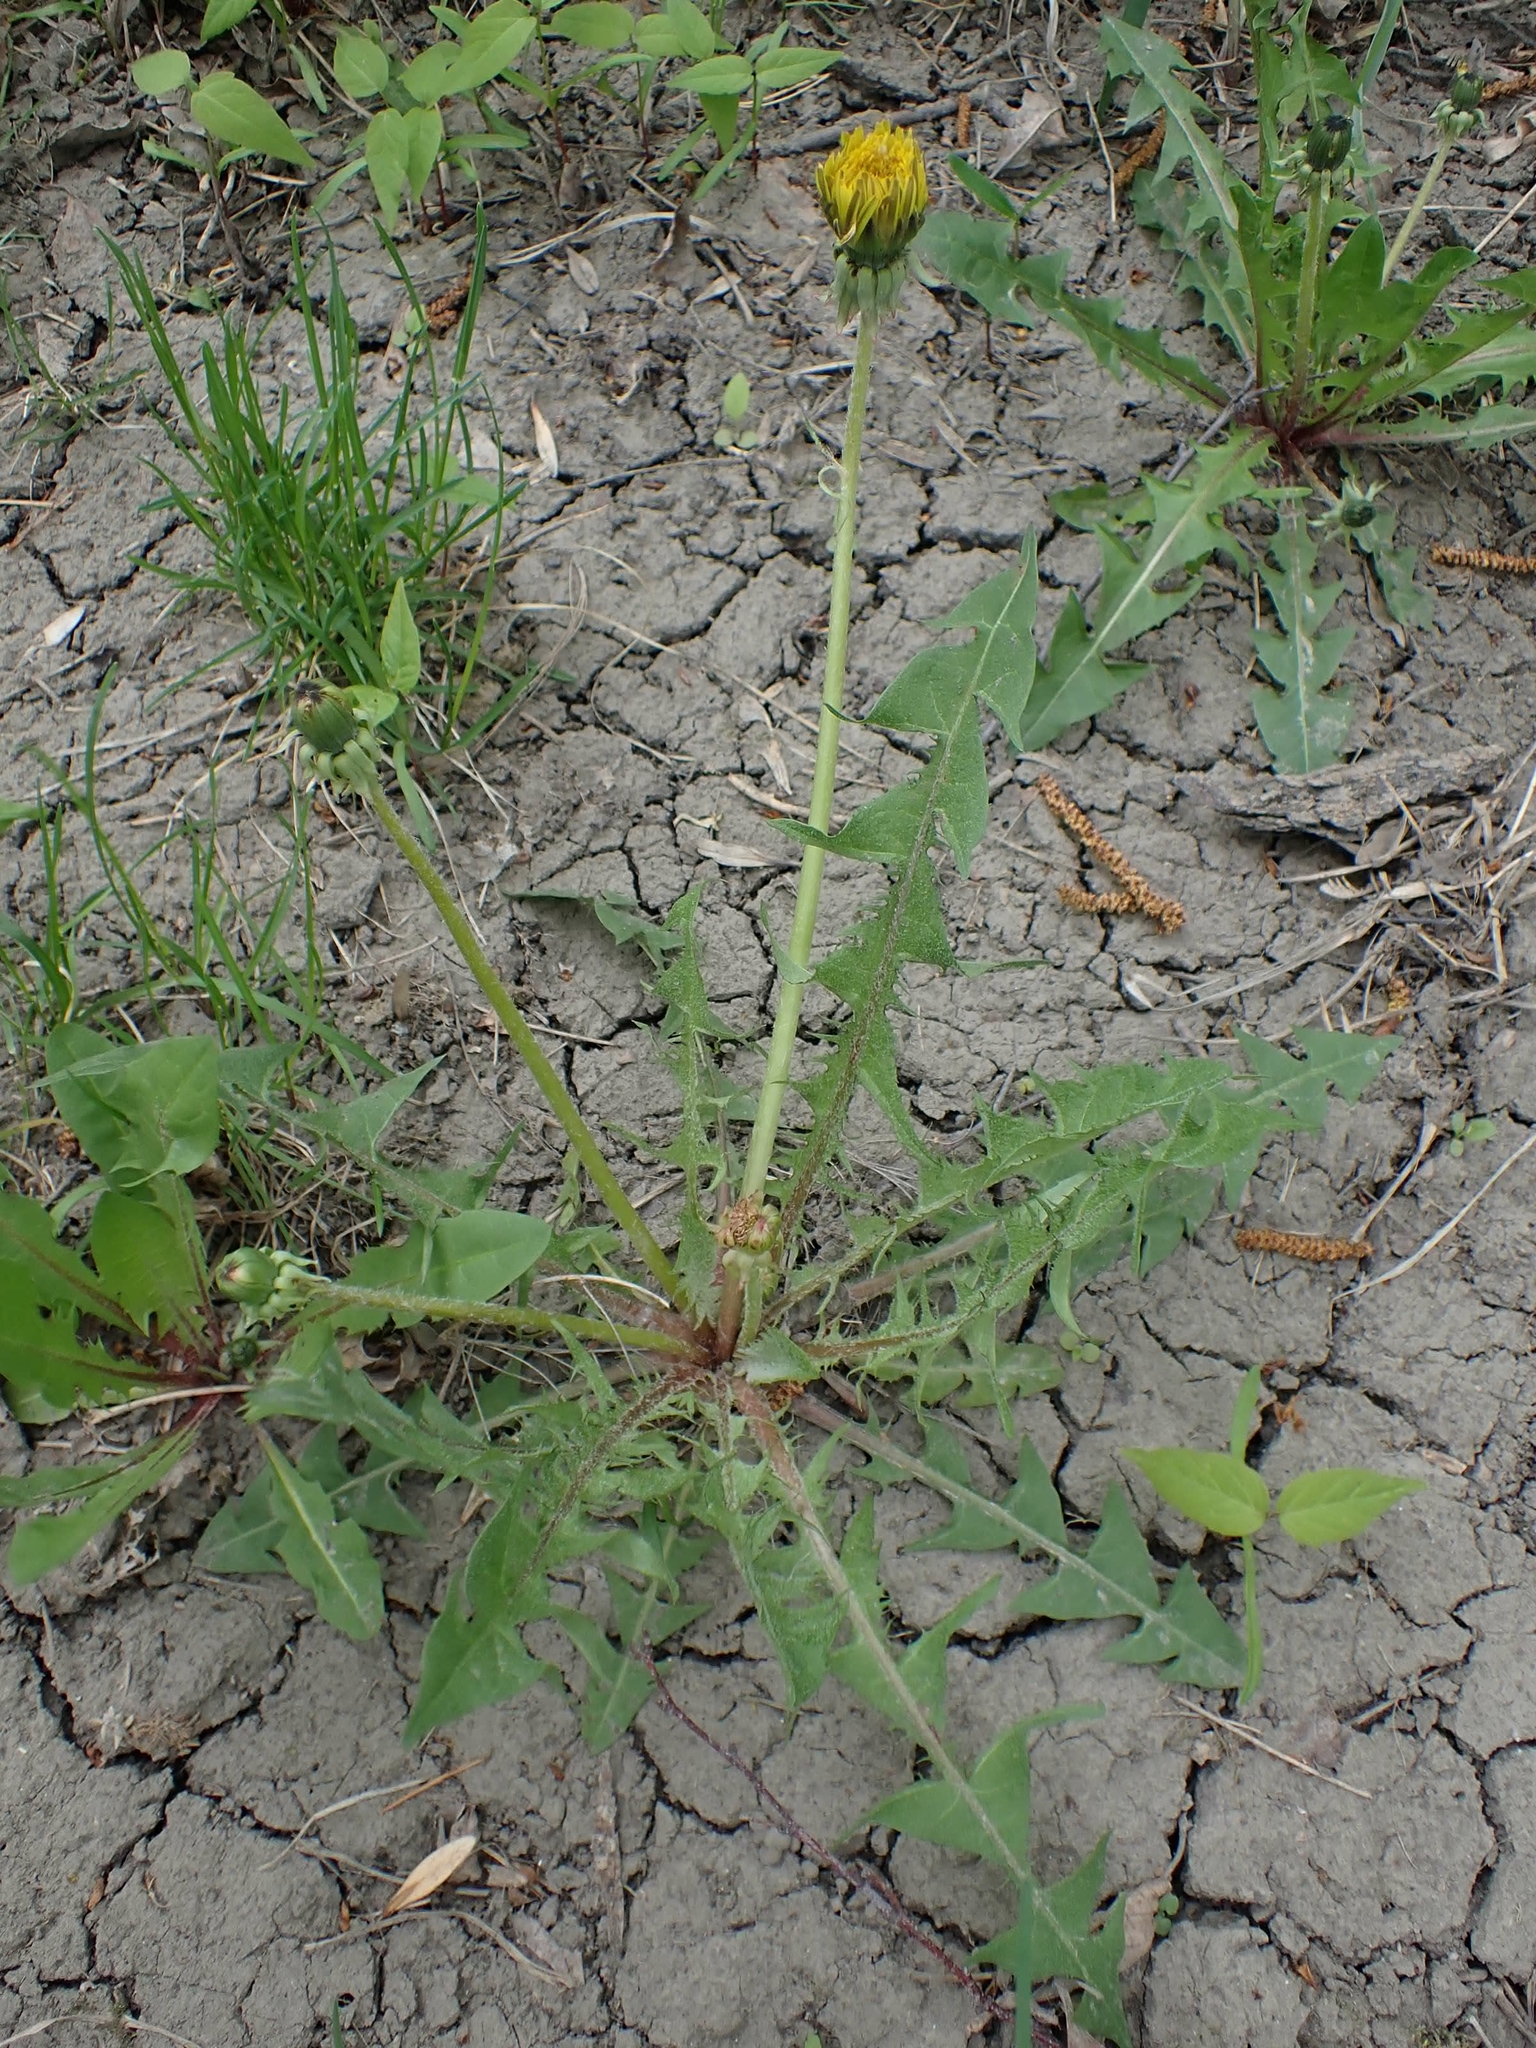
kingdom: Plantae
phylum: Tracheophyta
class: Magnoliopsida
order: Asterales
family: Asteraceae
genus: Taraxacum
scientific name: Taraxacum officinale
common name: Common dandelion
